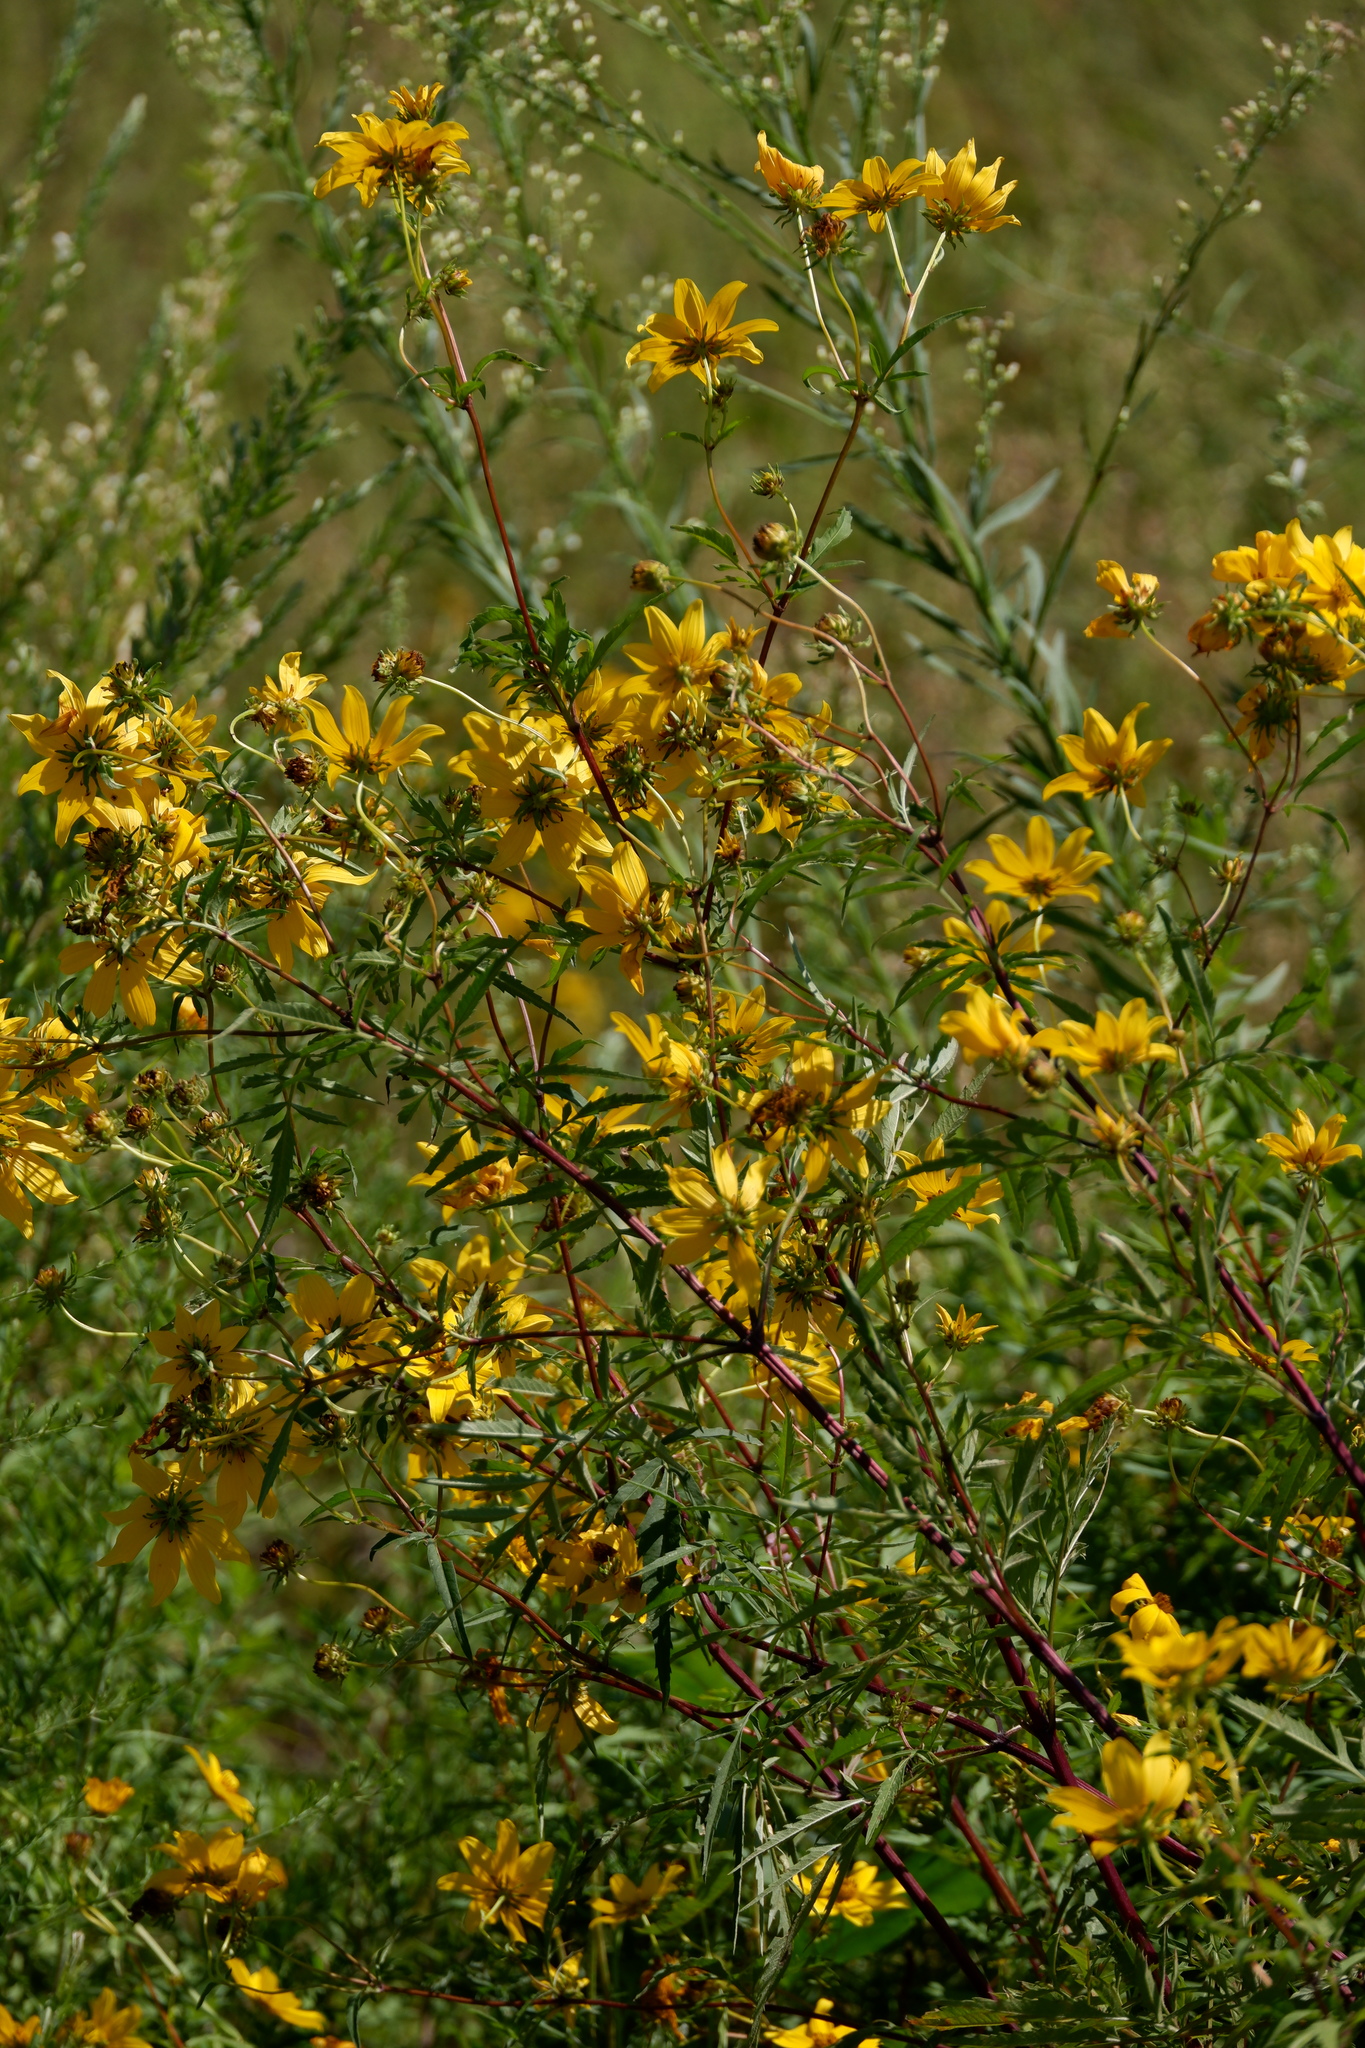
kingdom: Plantae
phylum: Tracheophyta
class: Magnoliopsida
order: Asterales
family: Asteraceae
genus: Bidens
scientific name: Bidens polylepis
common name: Awnless beggarticks
